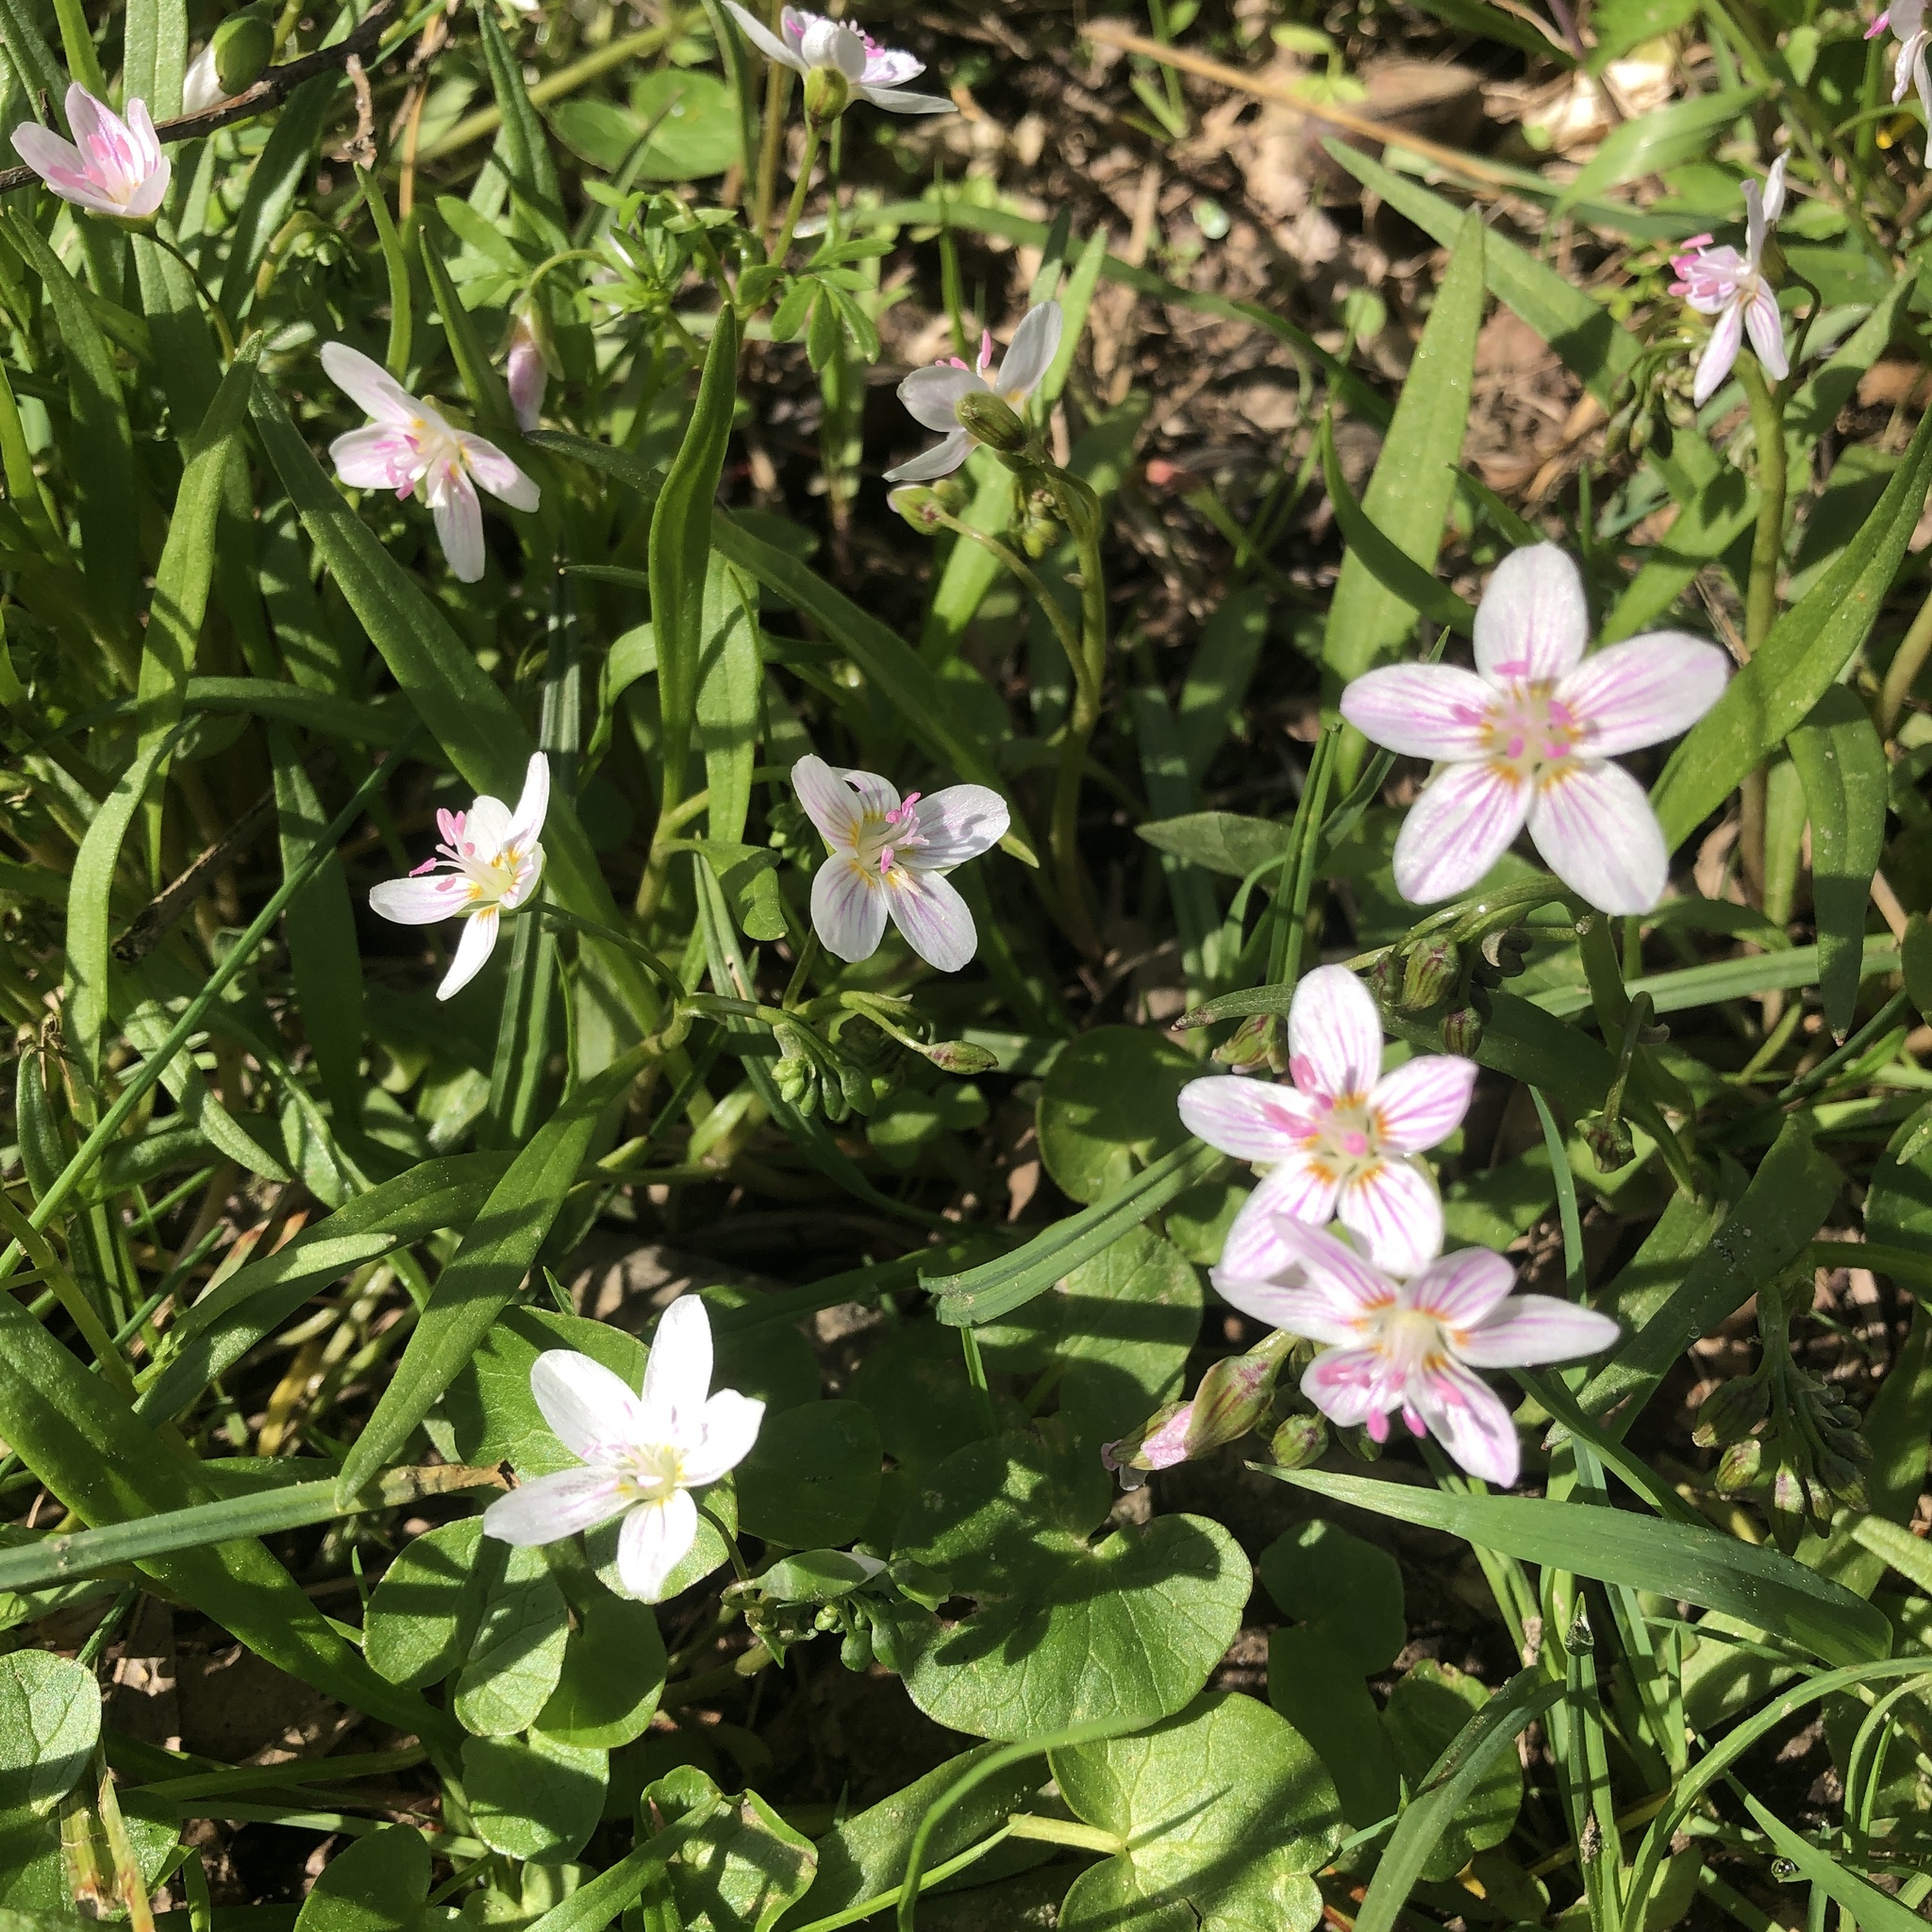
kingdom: Plantae
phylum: Tracheophyta
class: Magnoliopsida
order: Caryophyllales
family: Montiaceae
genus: Claytonia
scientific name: Claytonia virginica
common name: Virginia springbeauty
